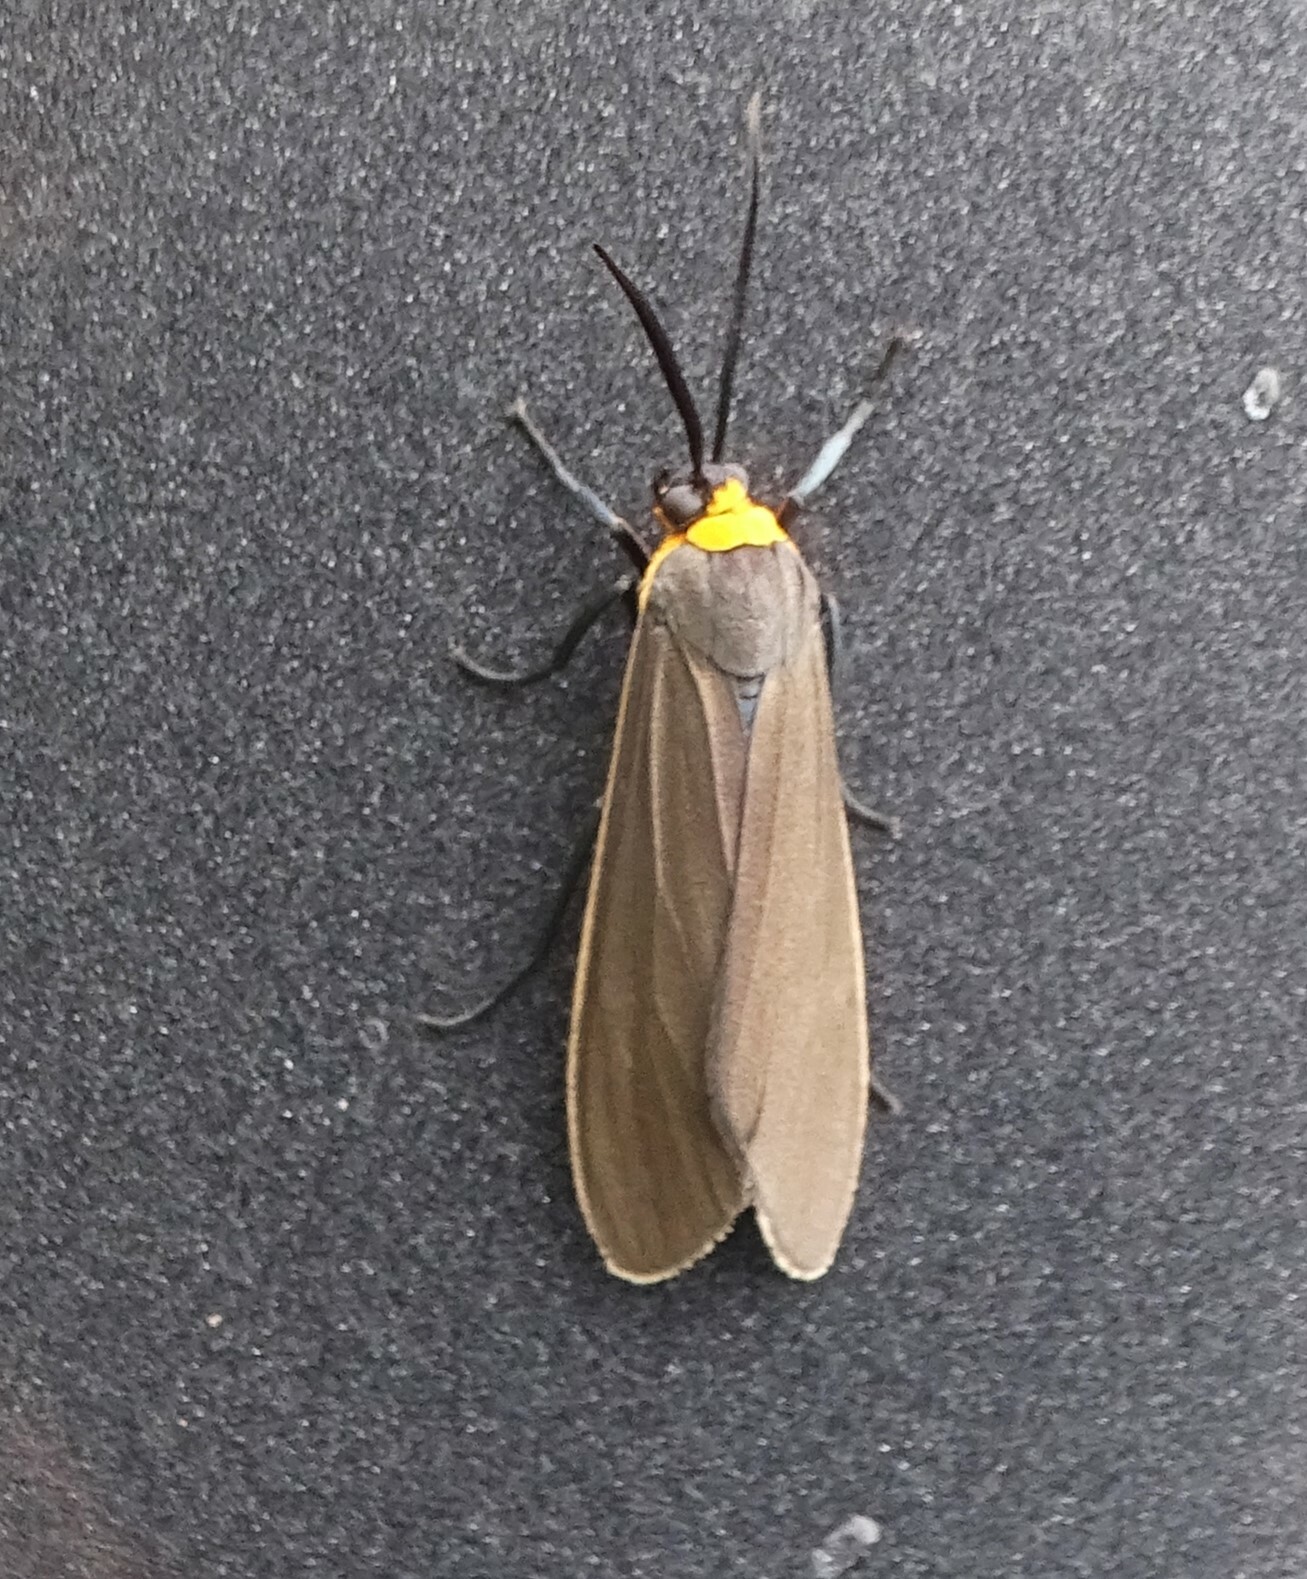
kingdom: Animalia
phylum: Arthropoda
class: Insecta
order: Lepidoptera
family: Erebidae
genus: Cisseps
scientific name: Cisseps fulvicollis
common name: Yellow-collared scape moth
